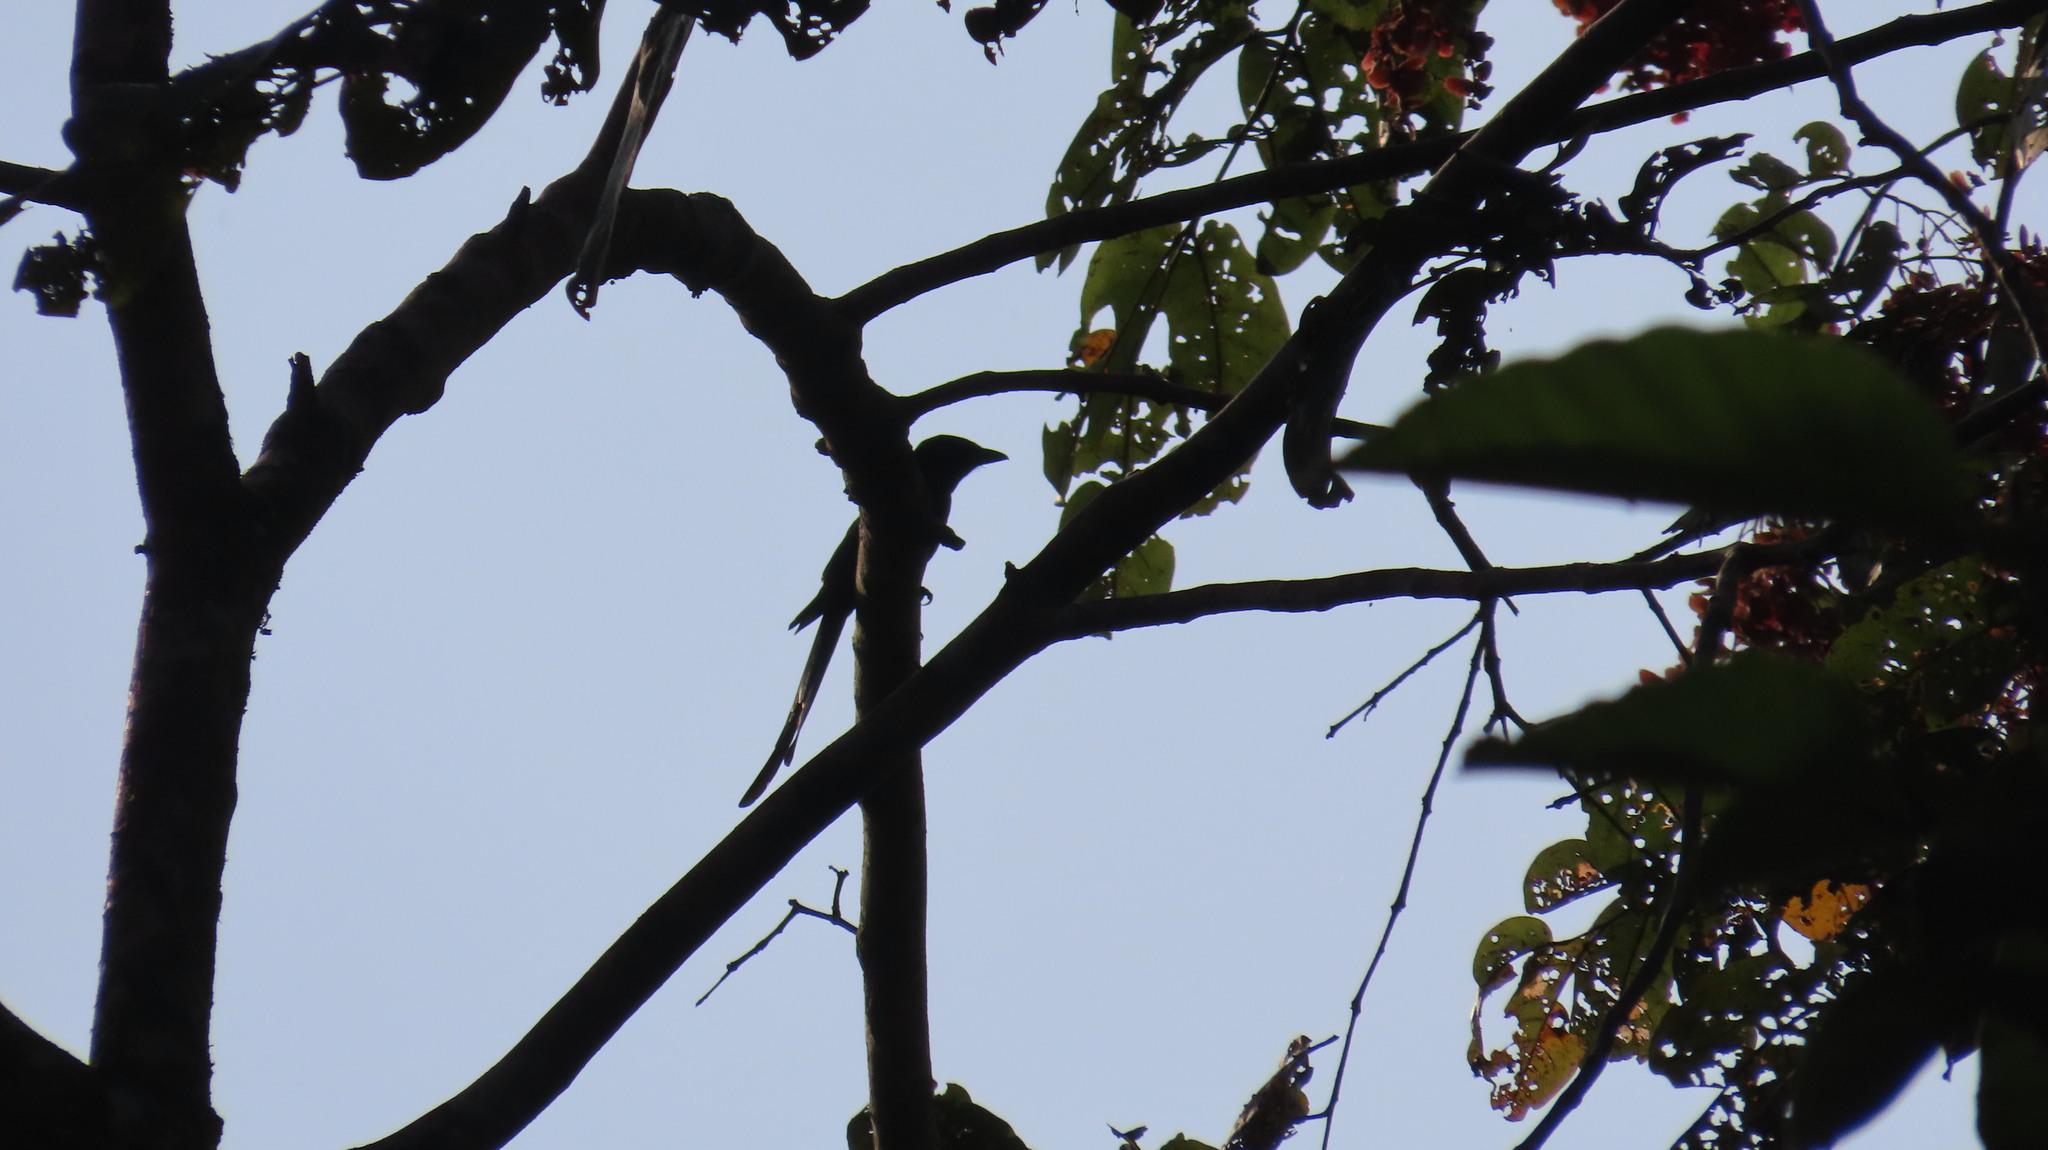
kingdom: Animalia
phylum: Chordata
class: Aves
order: Passeriformes
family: Dicruridae
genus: Dicrurus
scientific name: Dicrurus leucophaeus
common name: Ashy drongo
